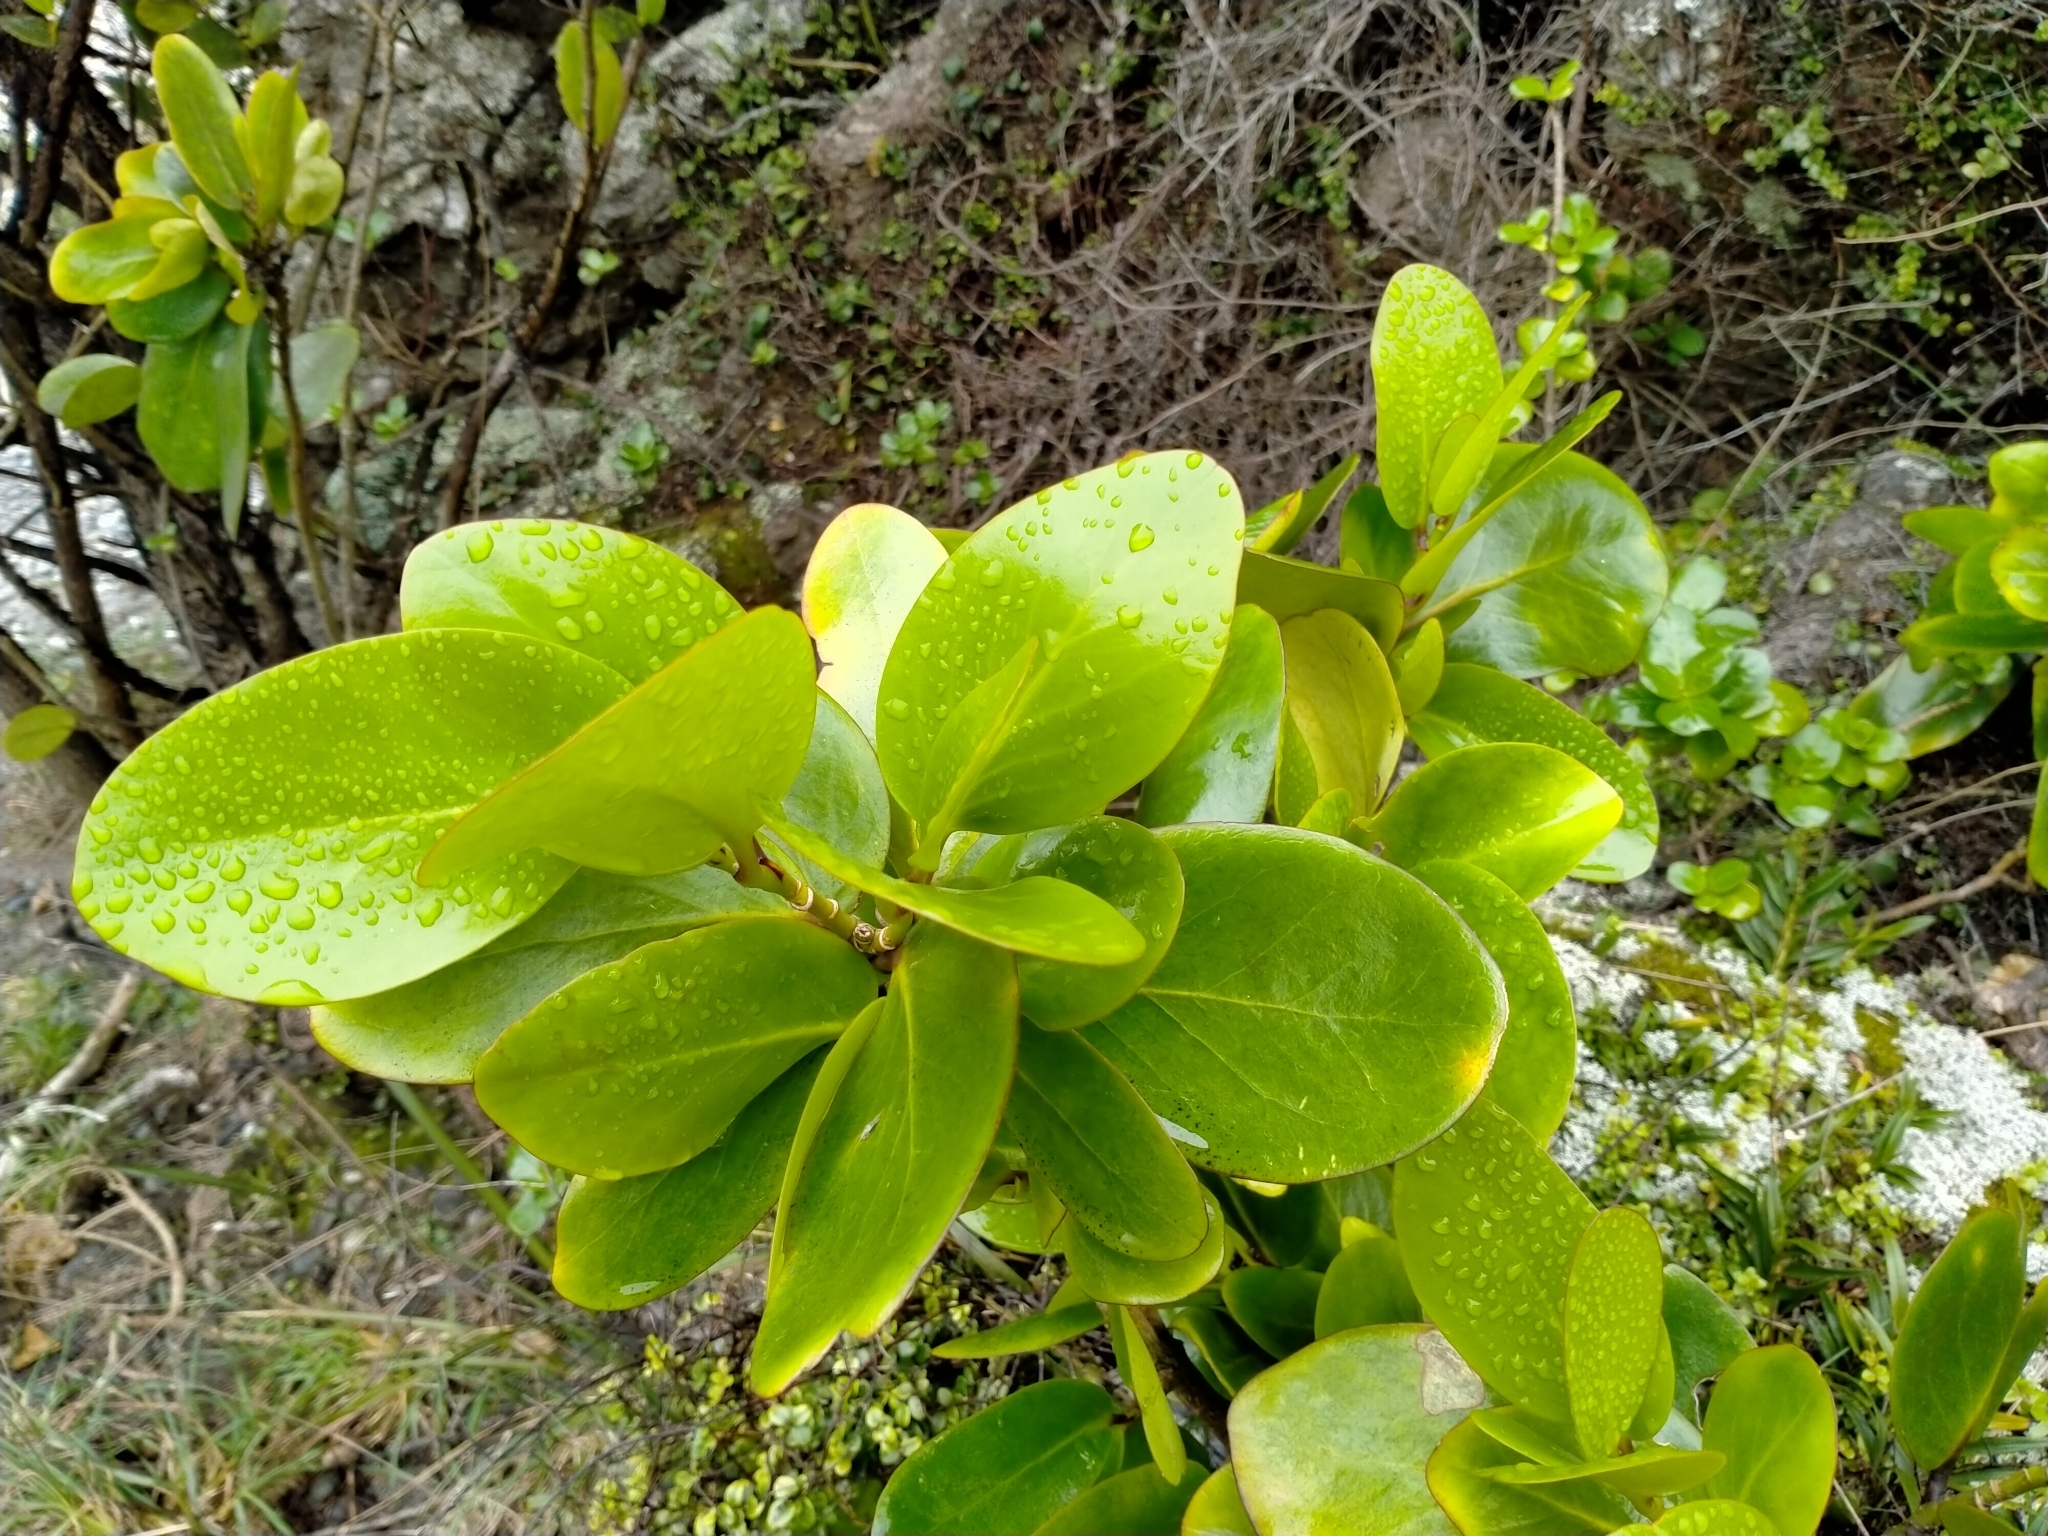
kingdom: Plantae
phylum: Tracheophyta
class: Magnoliopsida
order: Apiales
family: Griseliniaceae
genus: Griselinia
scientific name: Griselinia lucida
